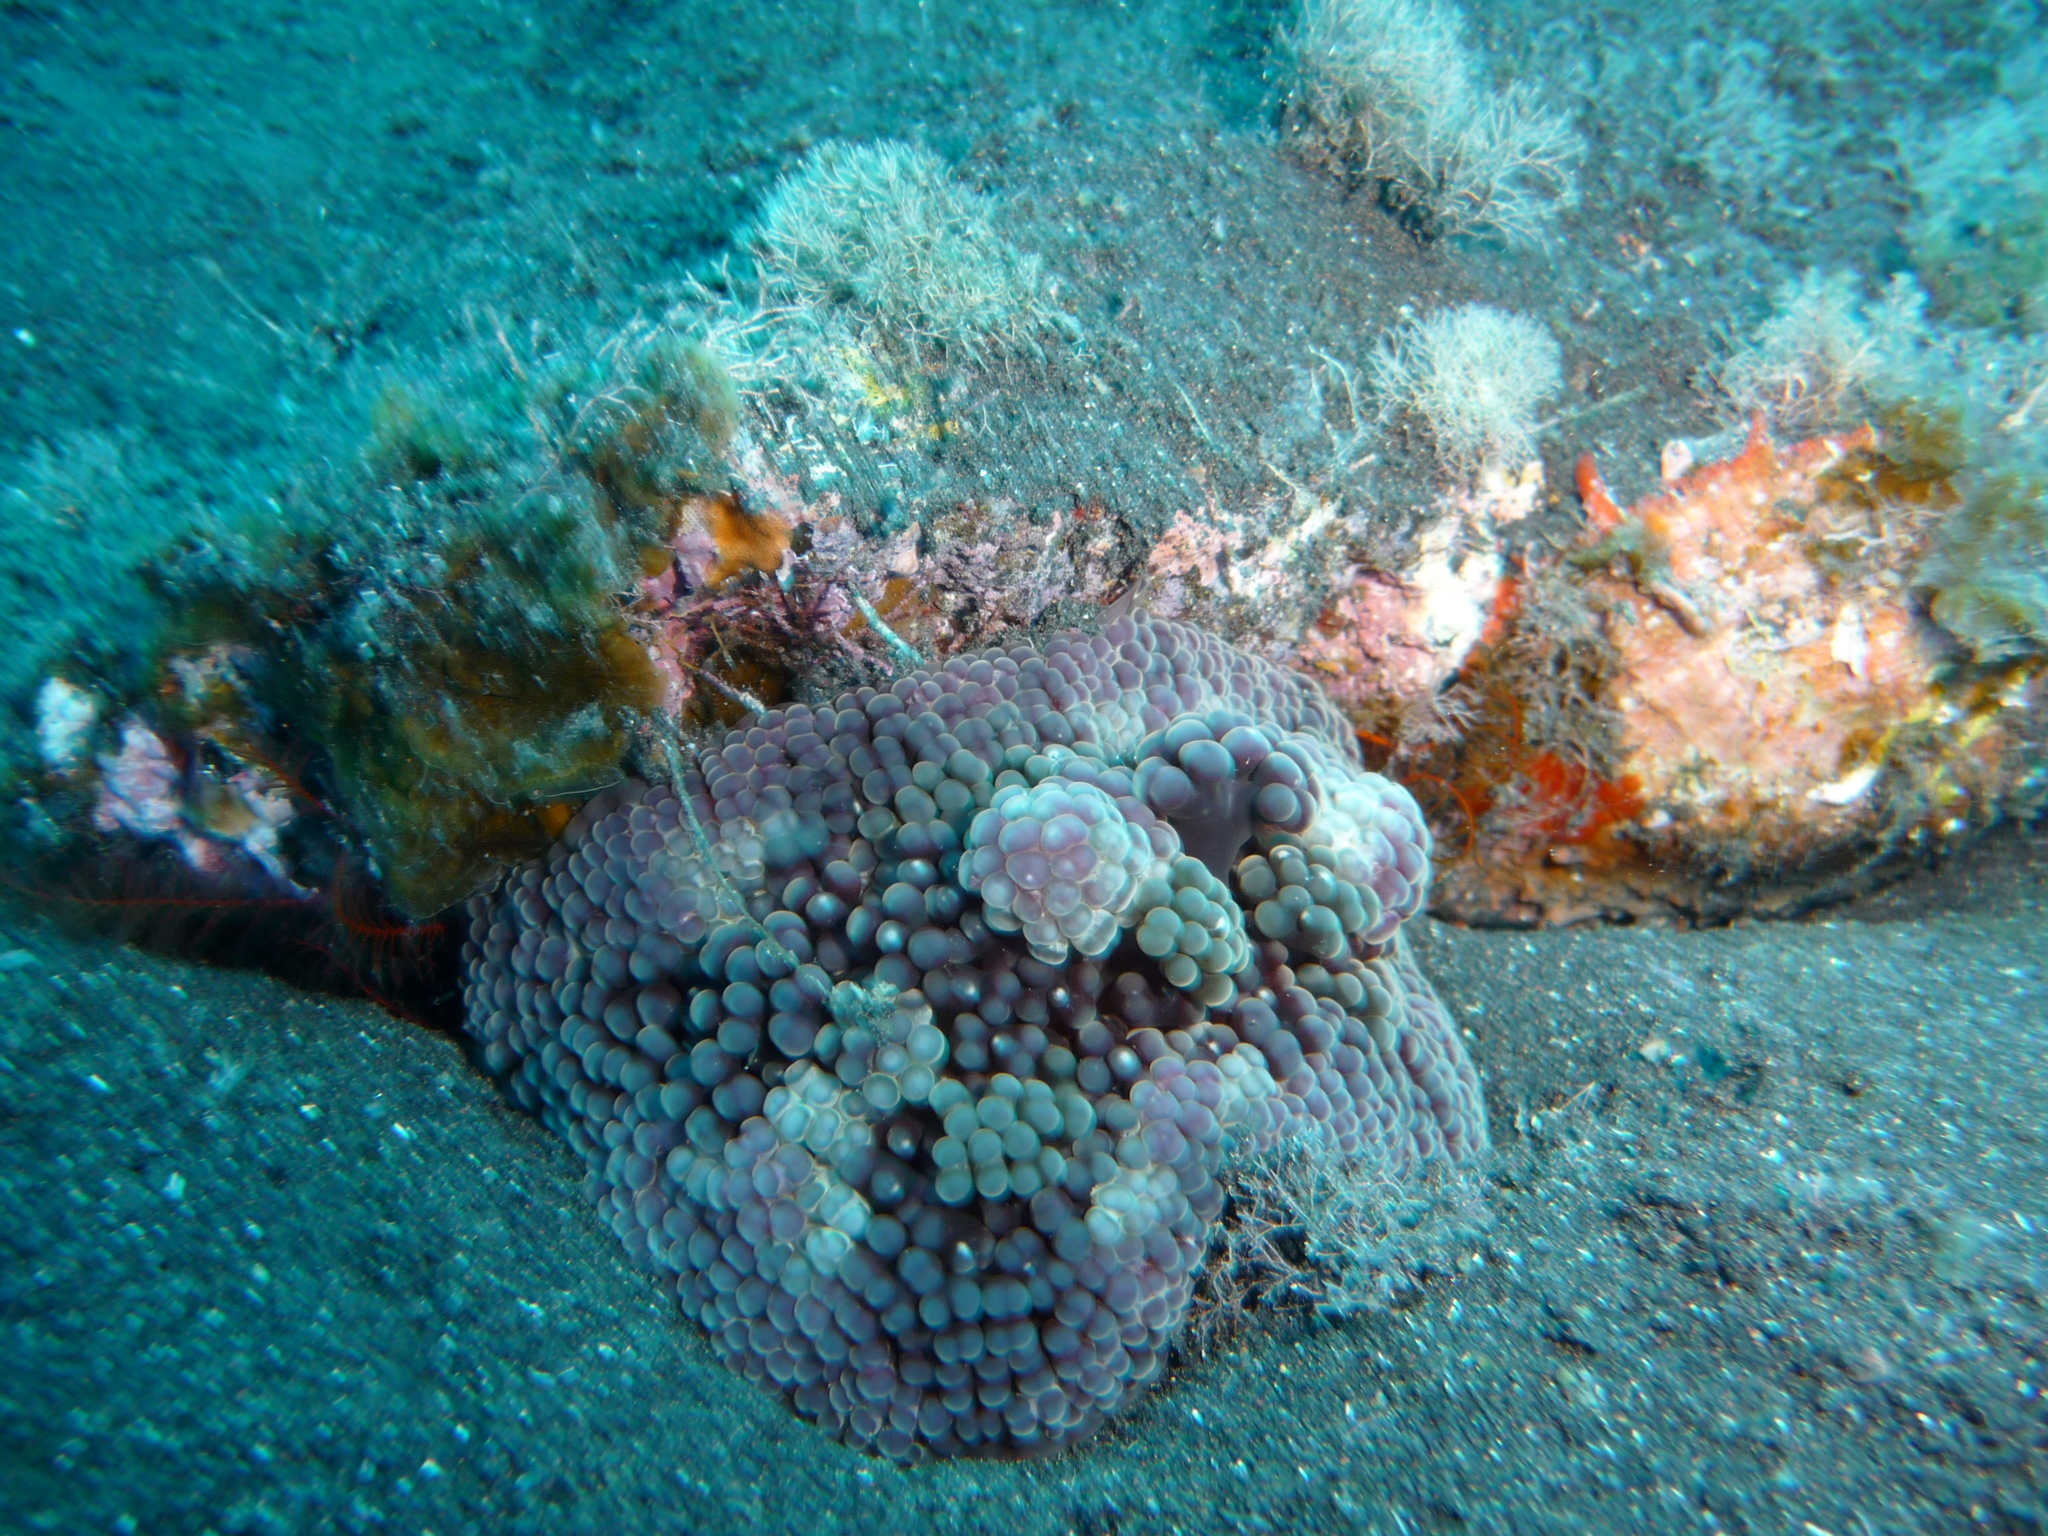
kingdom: Animalia
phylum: Cnidaria
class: Anthozoa
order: Actiniaria
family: Aliciidae
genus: Alicia
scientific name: Alicia mirabilis
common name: Berried anemone
